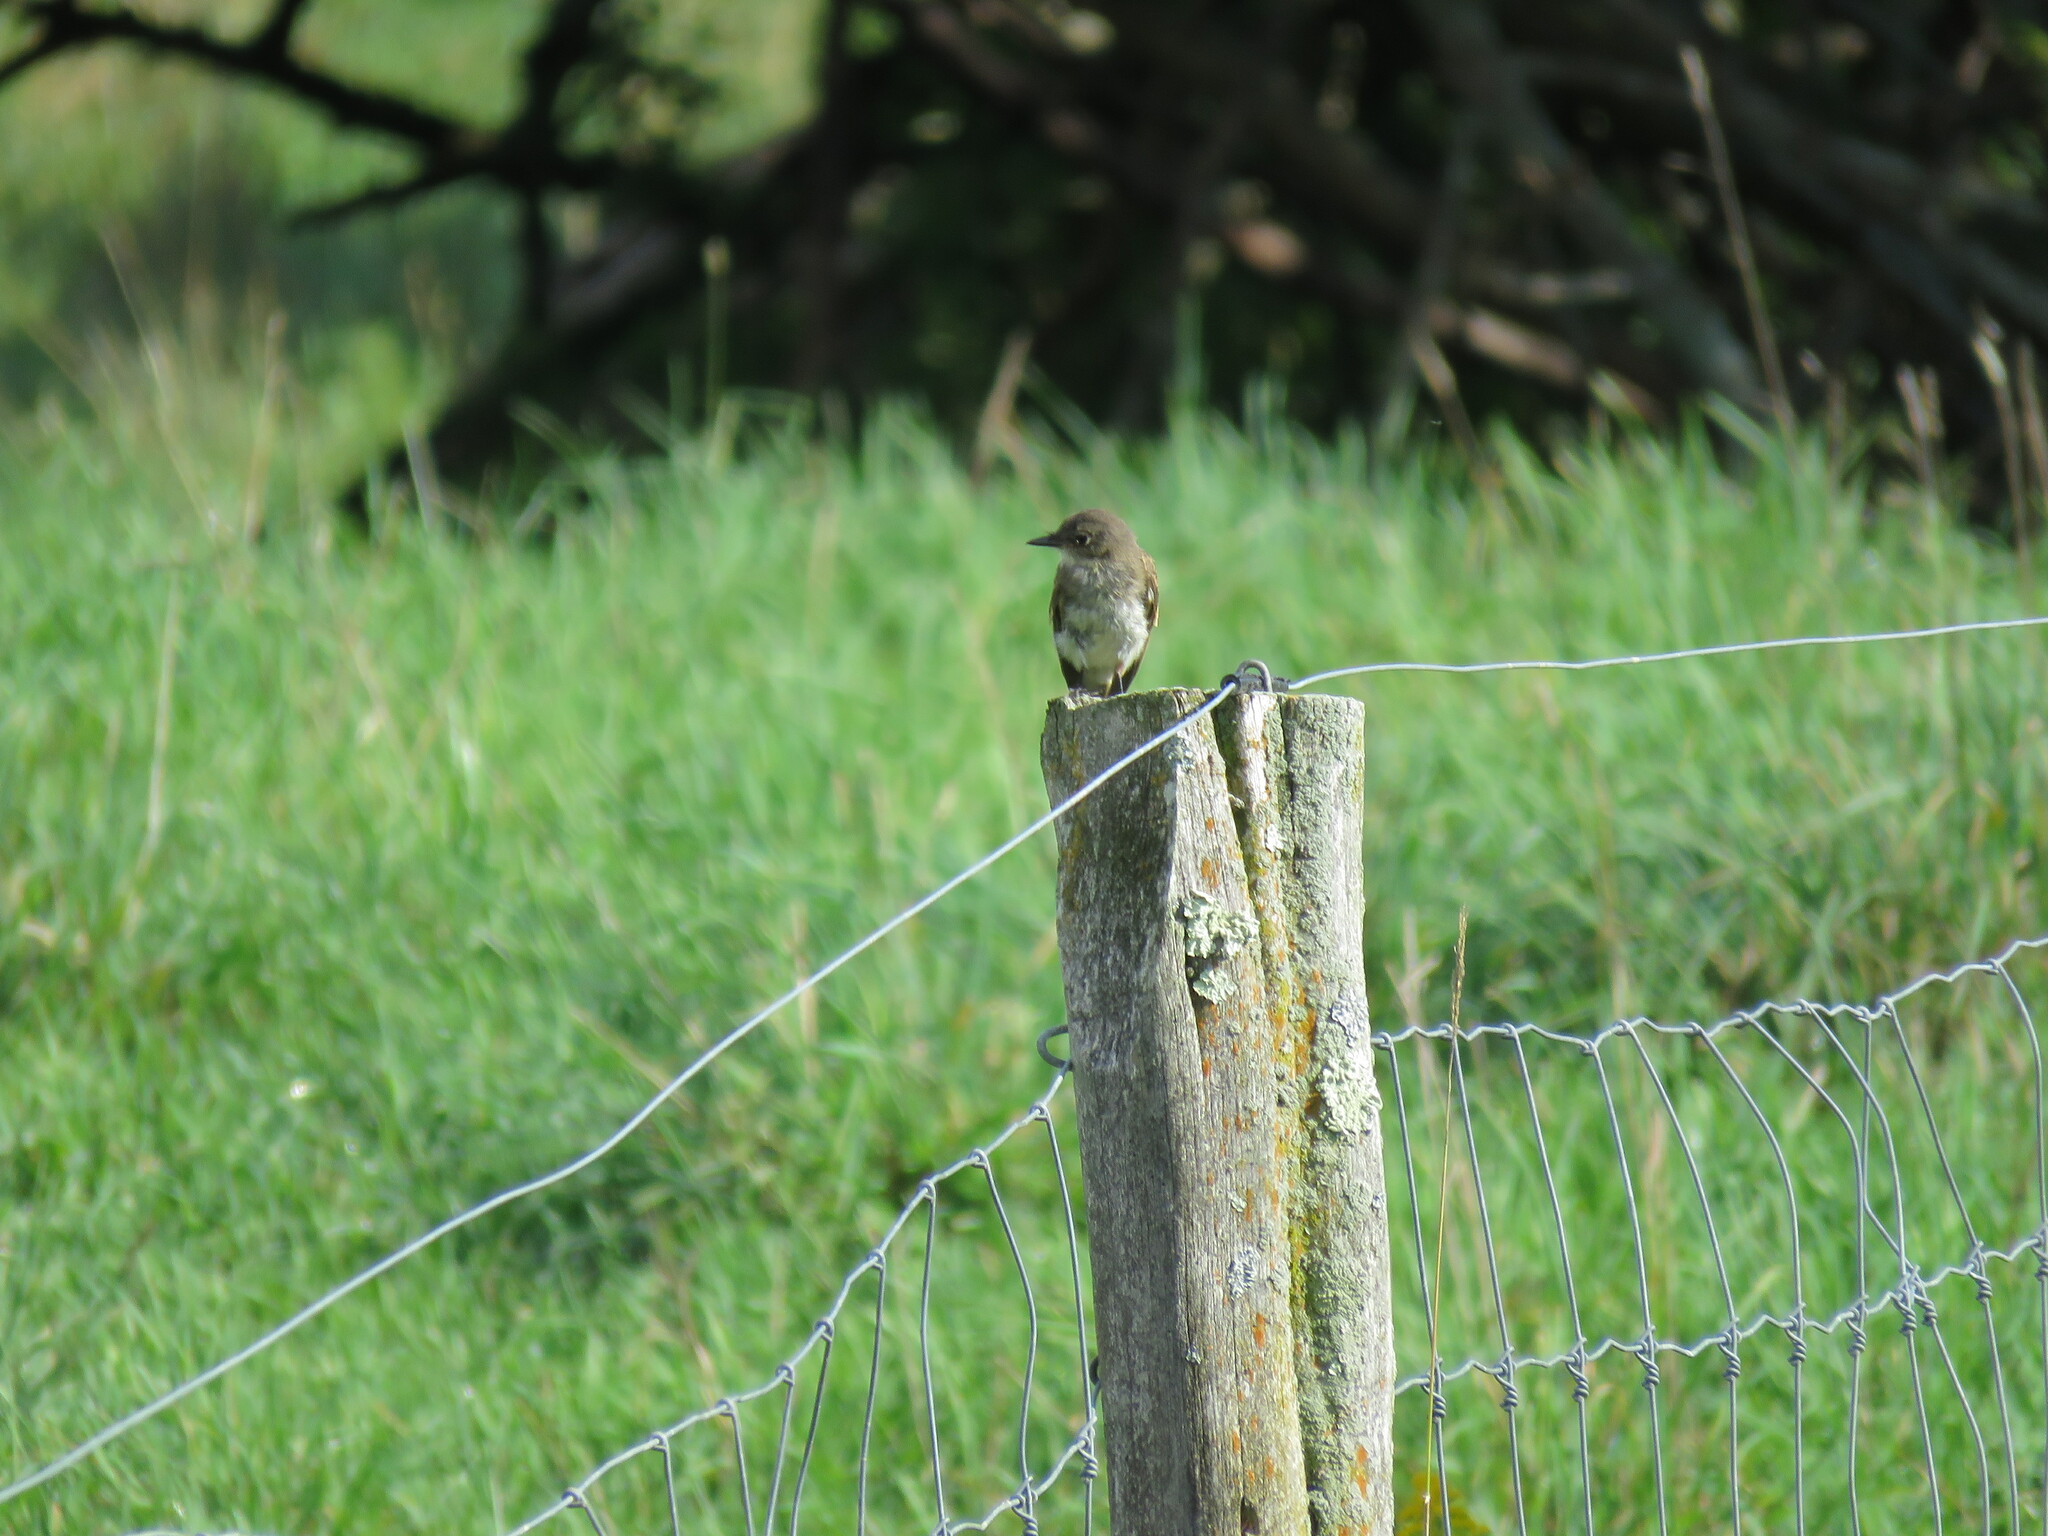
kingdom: Animalia
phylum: Chordata
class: Aves
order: Passeriformes
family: Tyrannidae
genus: Sayornis
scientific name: Sayornis phoebe
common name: Eastern phoebe
